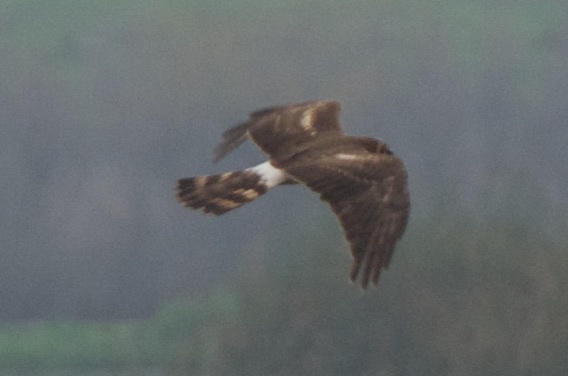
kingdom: Animalia
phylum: Chordata
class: Aves
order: Accipitriformes
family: Accipitridae
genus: Circus
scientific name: Circus cyaneus
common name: Hen harrier
